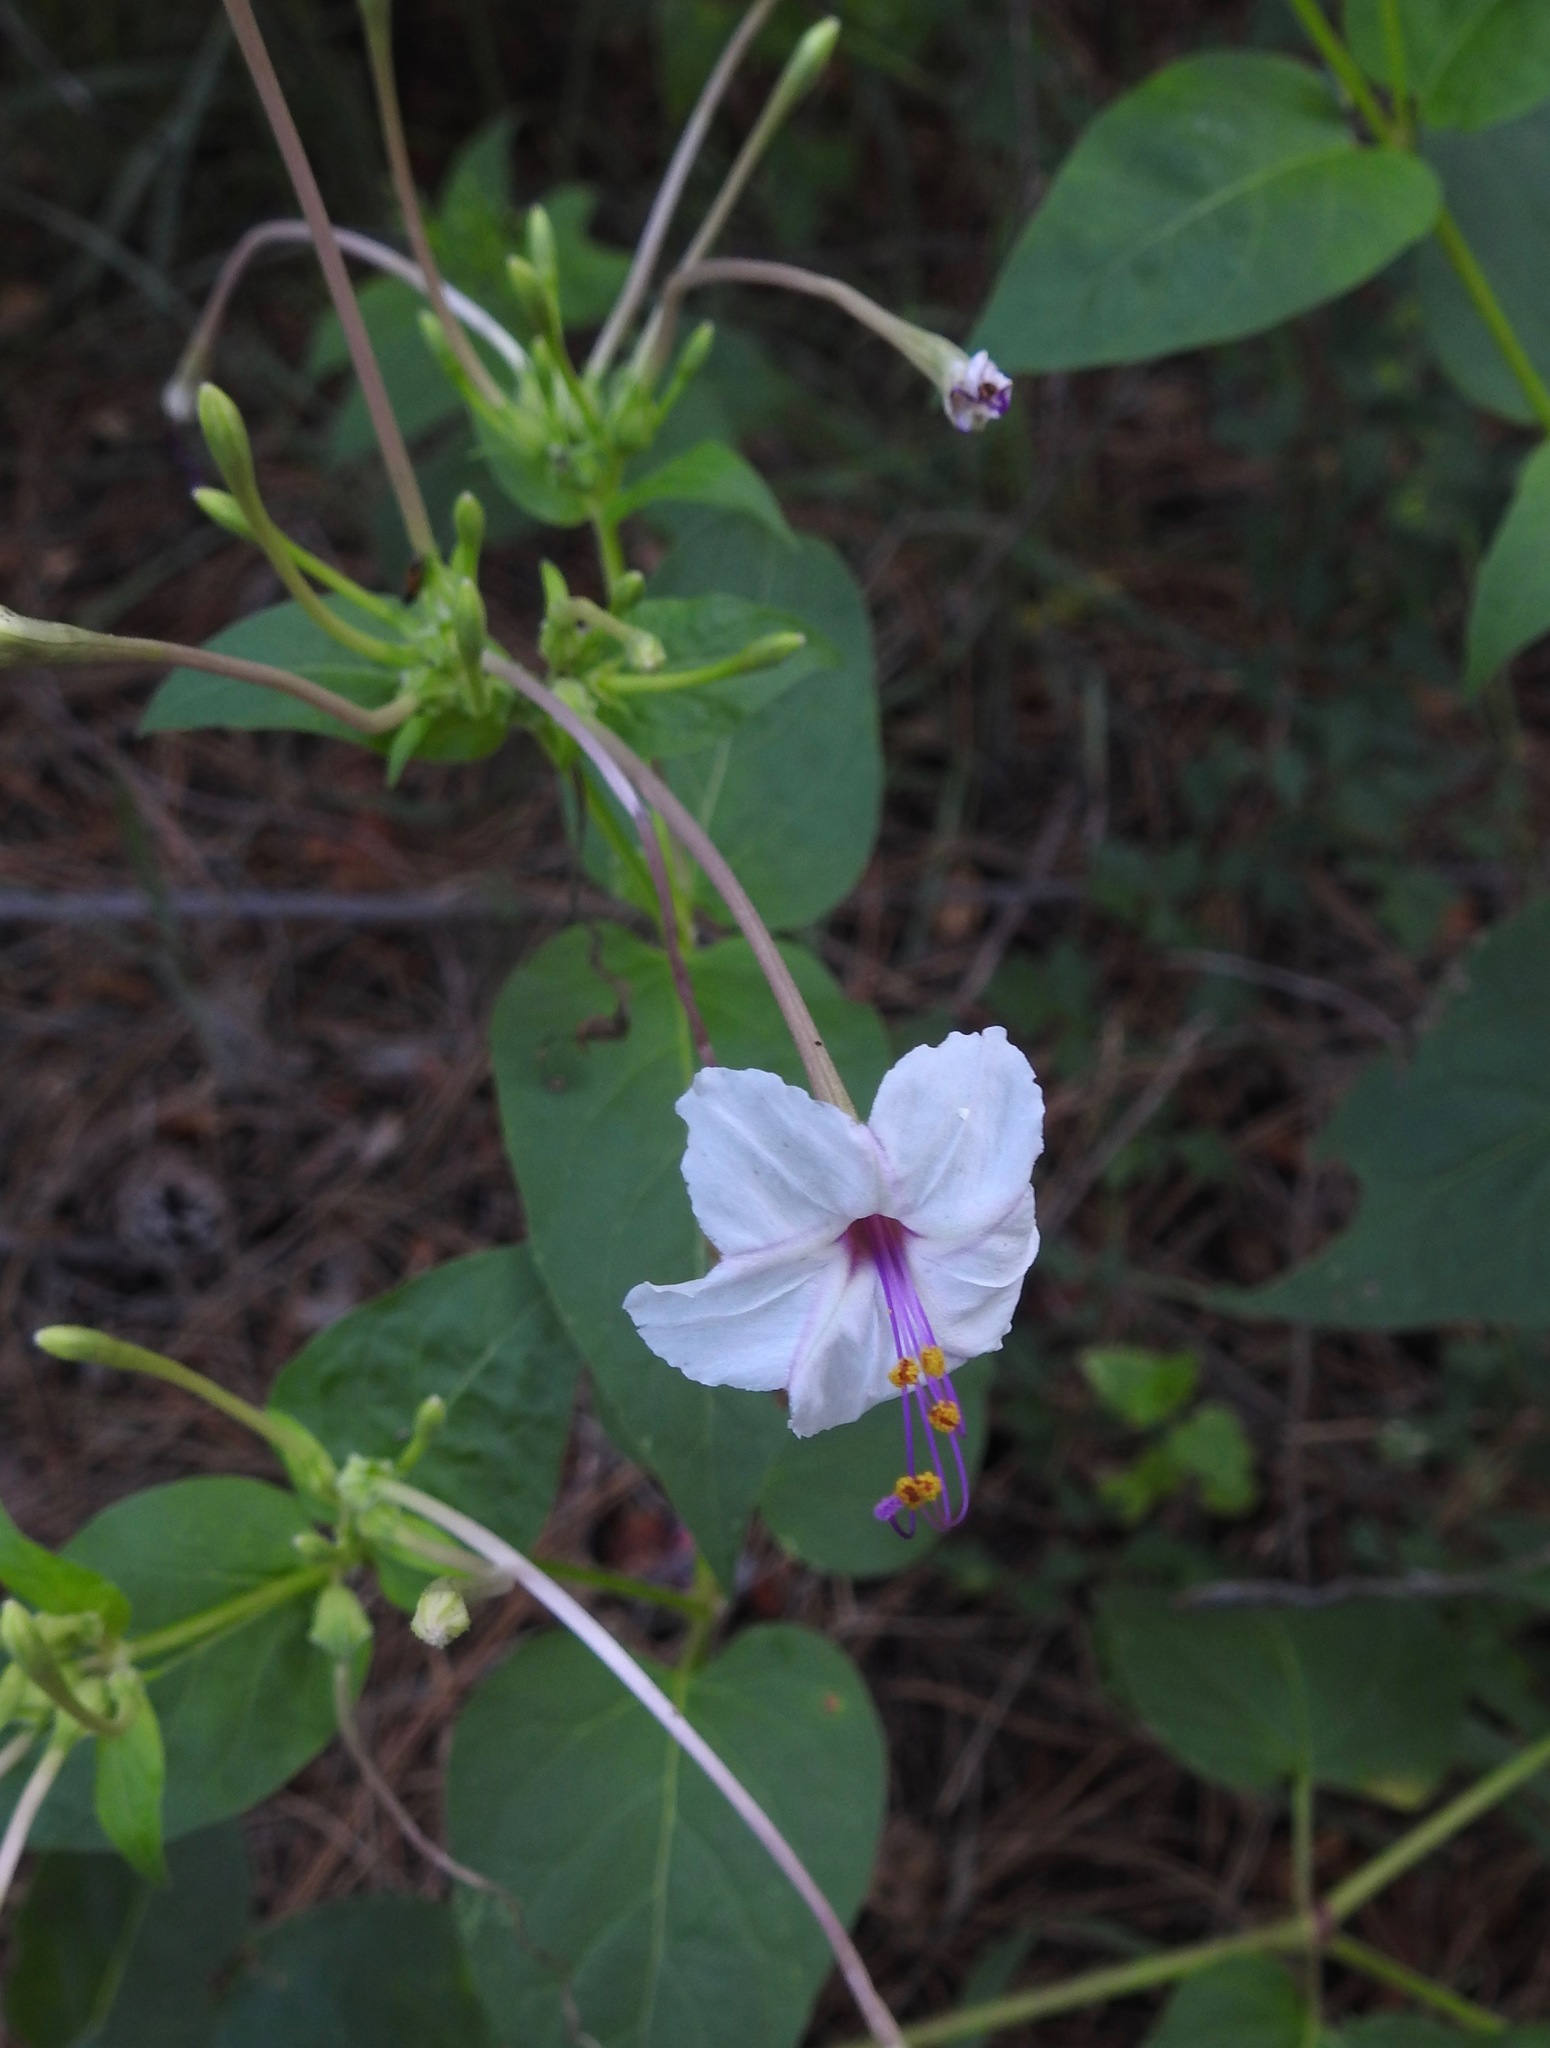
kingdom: Plantae
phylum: Tracheophyta
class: Magnoliopsida
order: Caryophyllales
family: Nyctaginaceae
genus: Mirabilis
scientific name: Mirabilis longiflora
